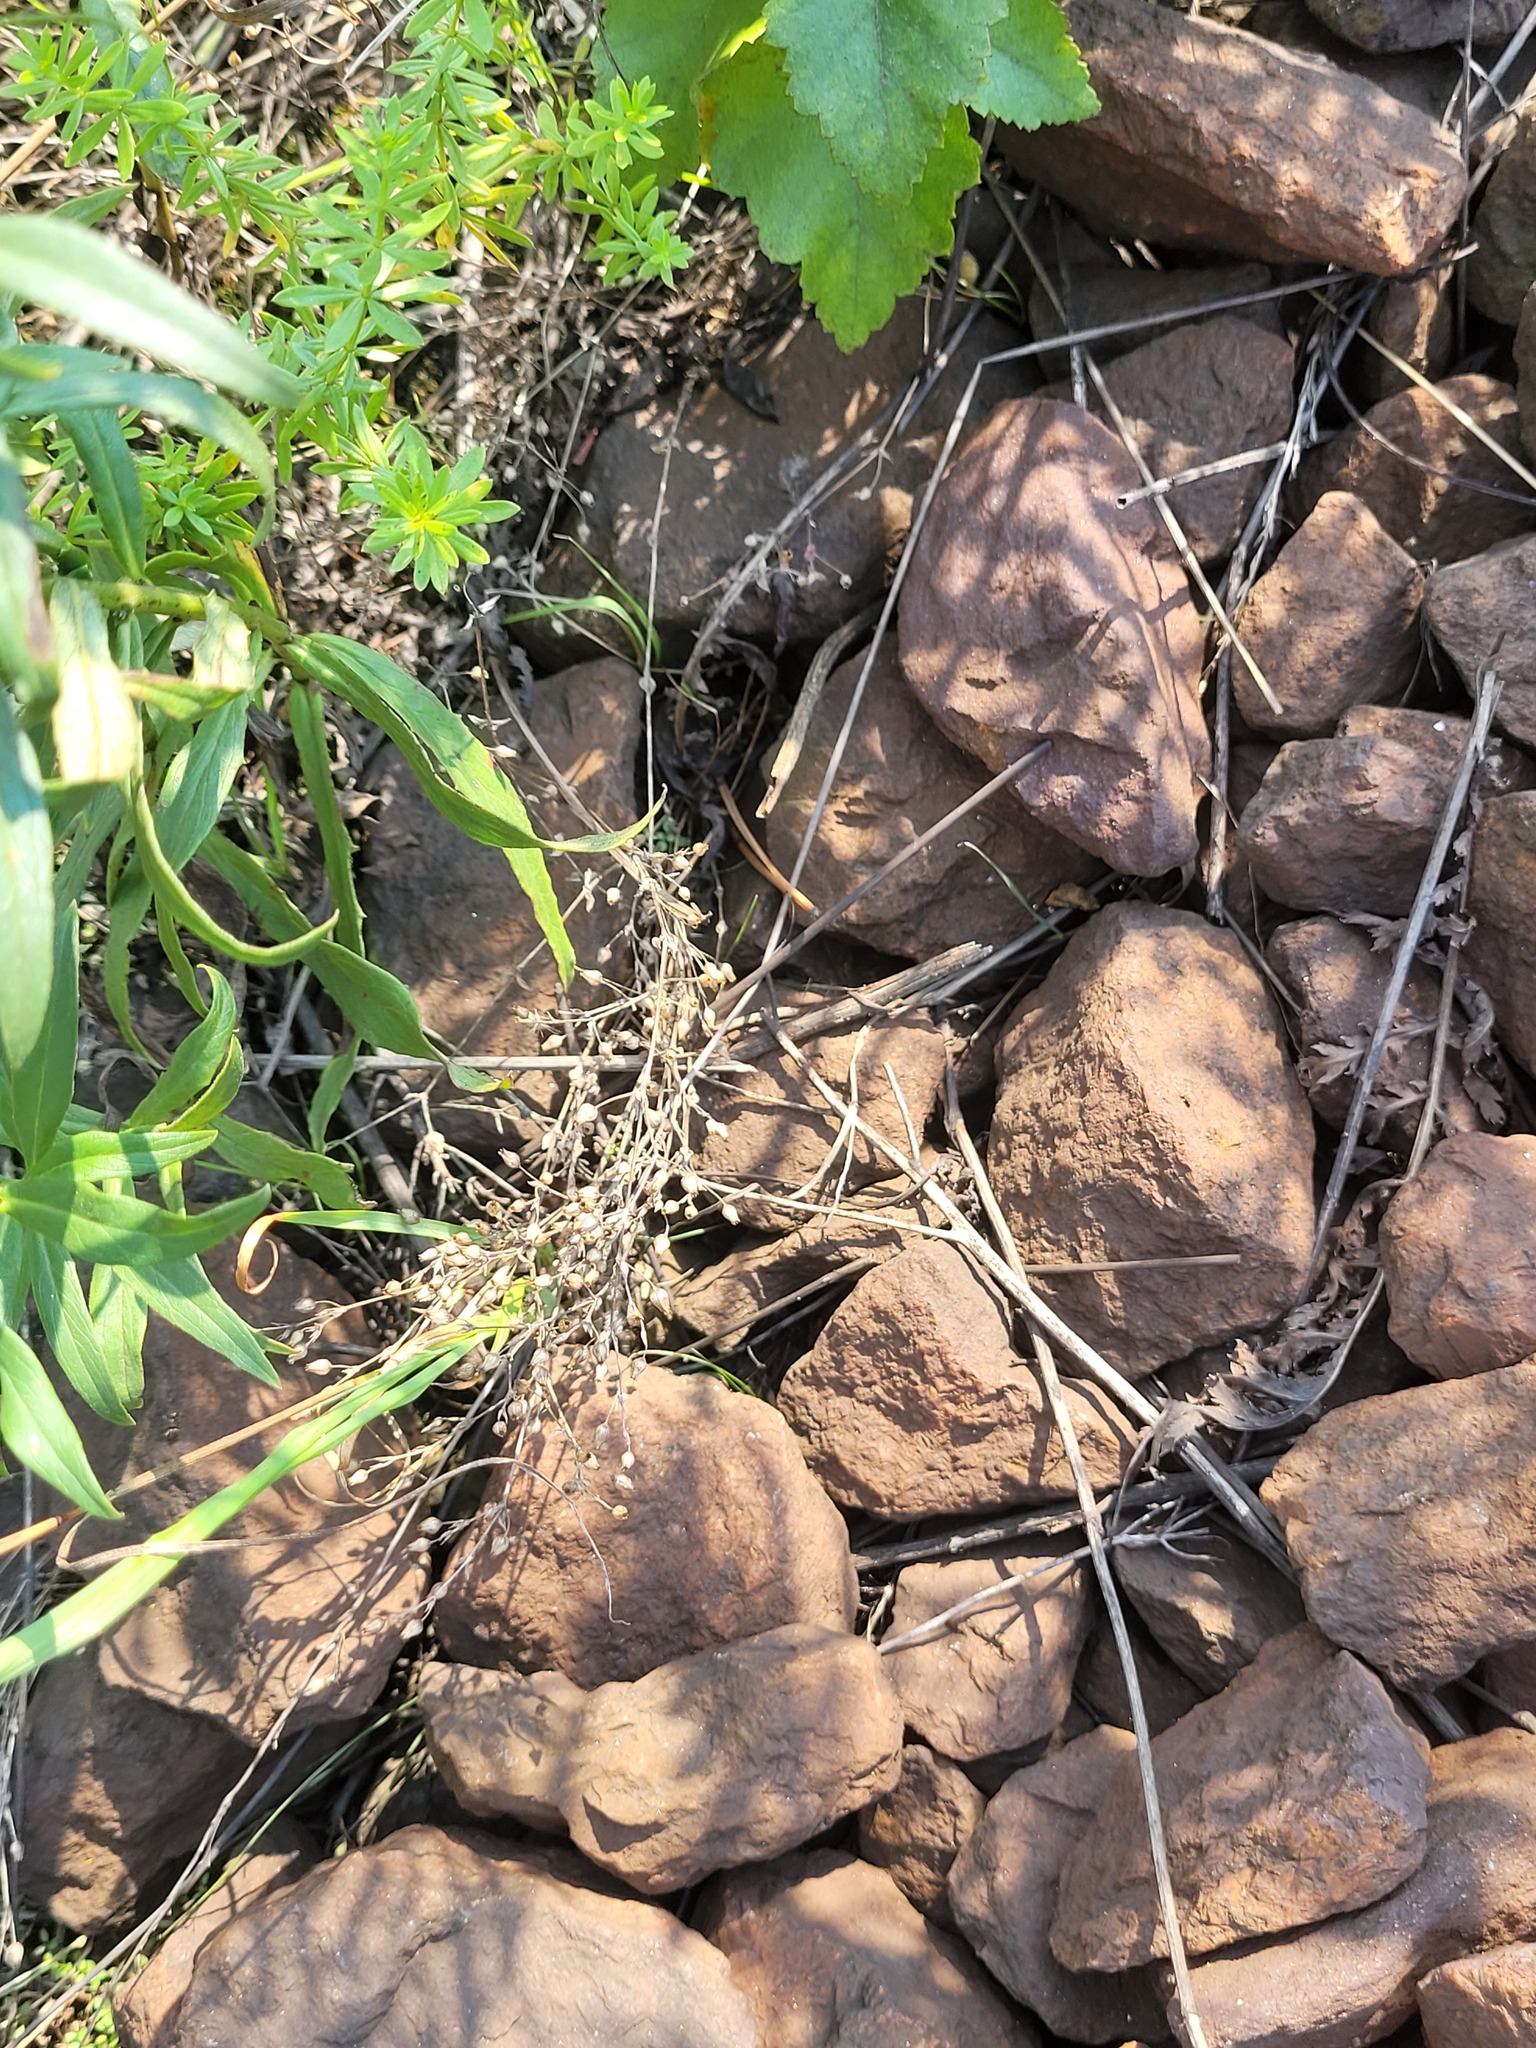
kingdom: Plantae
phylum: Tracheophyta
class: Magnoliopsida
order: Caryophyllales
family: Caryophyllaceae
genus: Arenaria
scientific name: Arenaria serpyllifolia
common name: Thyme-leaved sandwort
